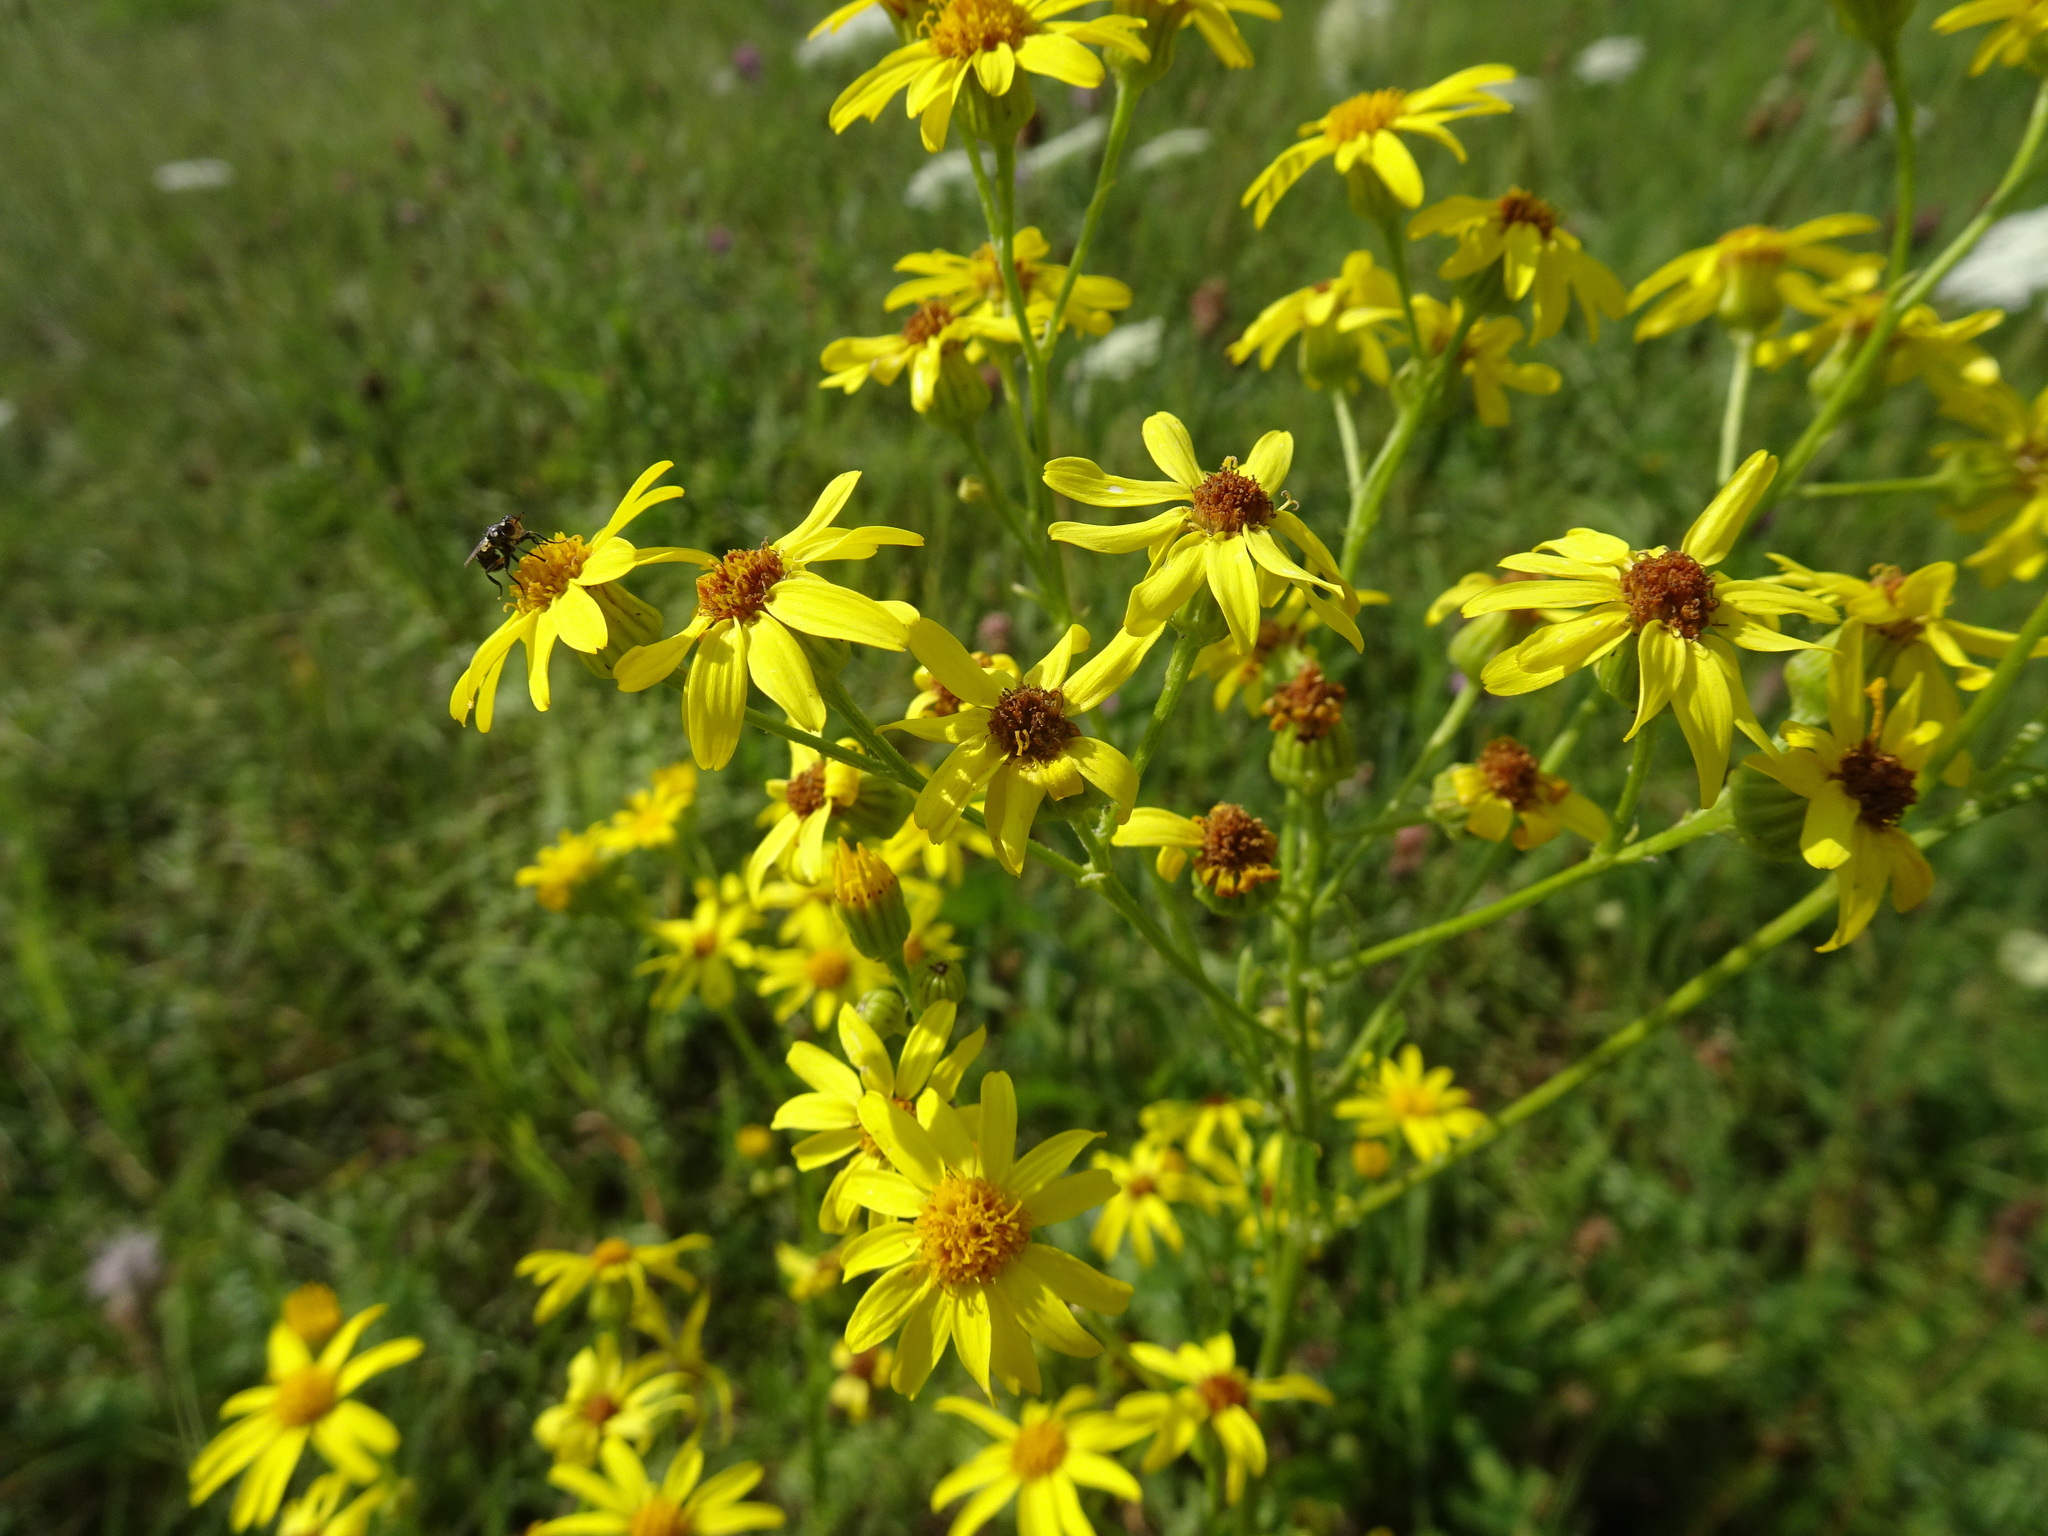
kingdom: Plantae
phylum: Tracheophyta
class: Magnoliopsida
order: Asterales
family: Asteraceae
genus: Jacobaea
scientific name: Jacobaea vulgaris
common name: Stinking willie
